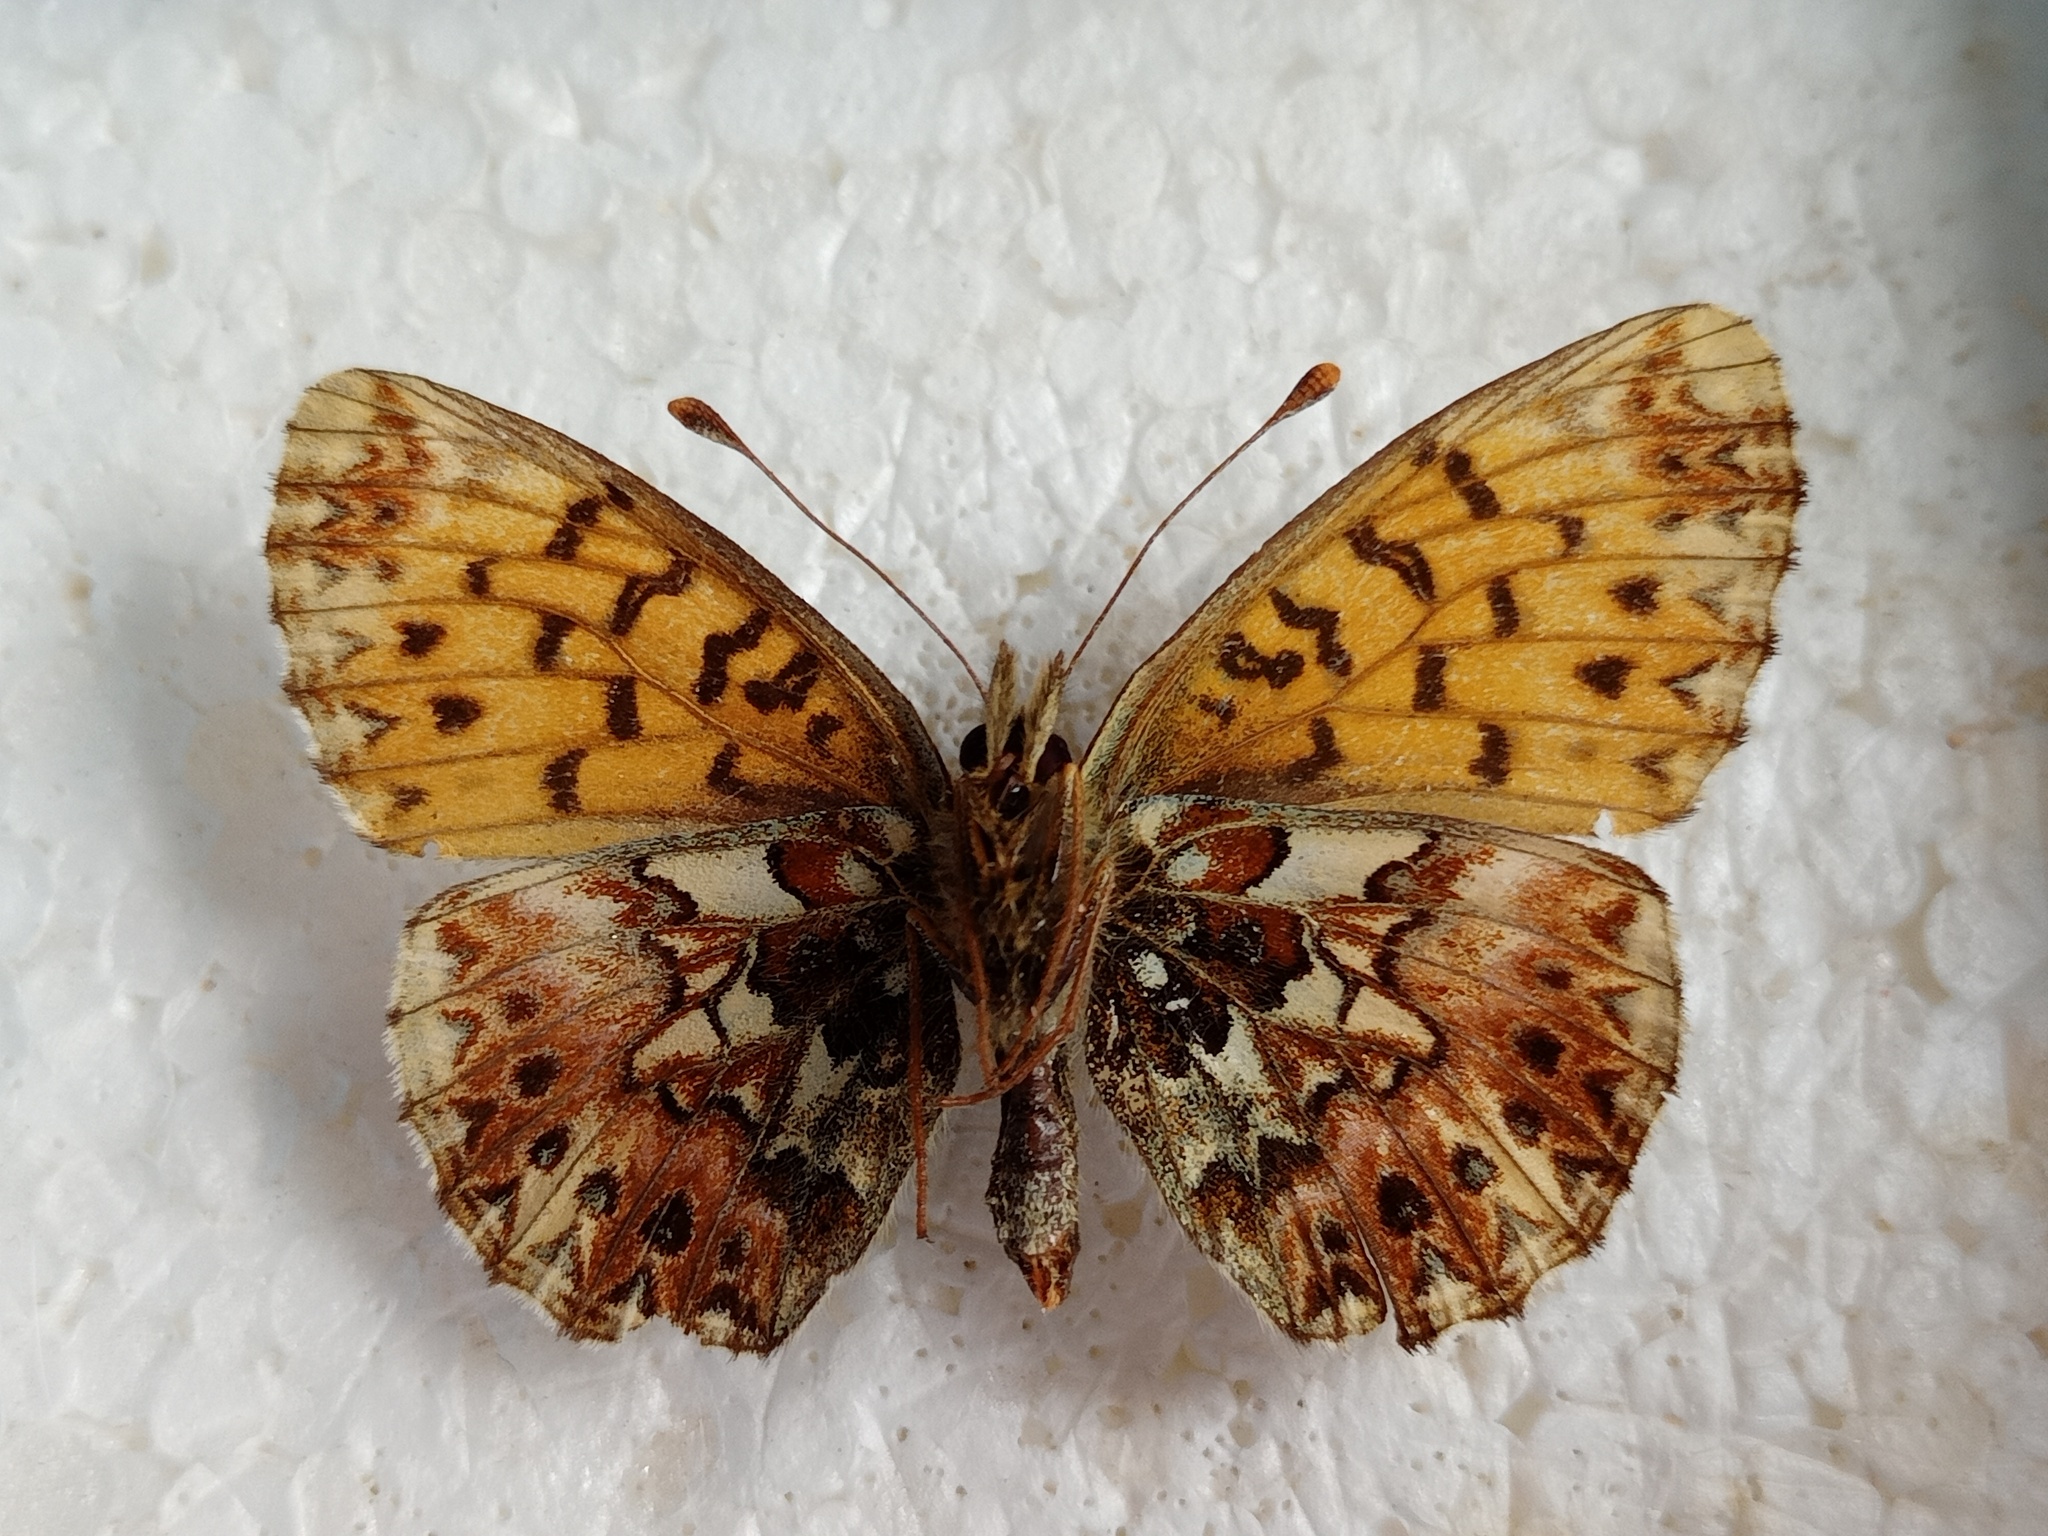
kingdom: Animalia
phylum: Arthropoda
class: Insecta
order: Lepidoptera
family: Nymphalidae
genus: Boloria
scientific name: Boloria titania
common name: Titania's fritillary
